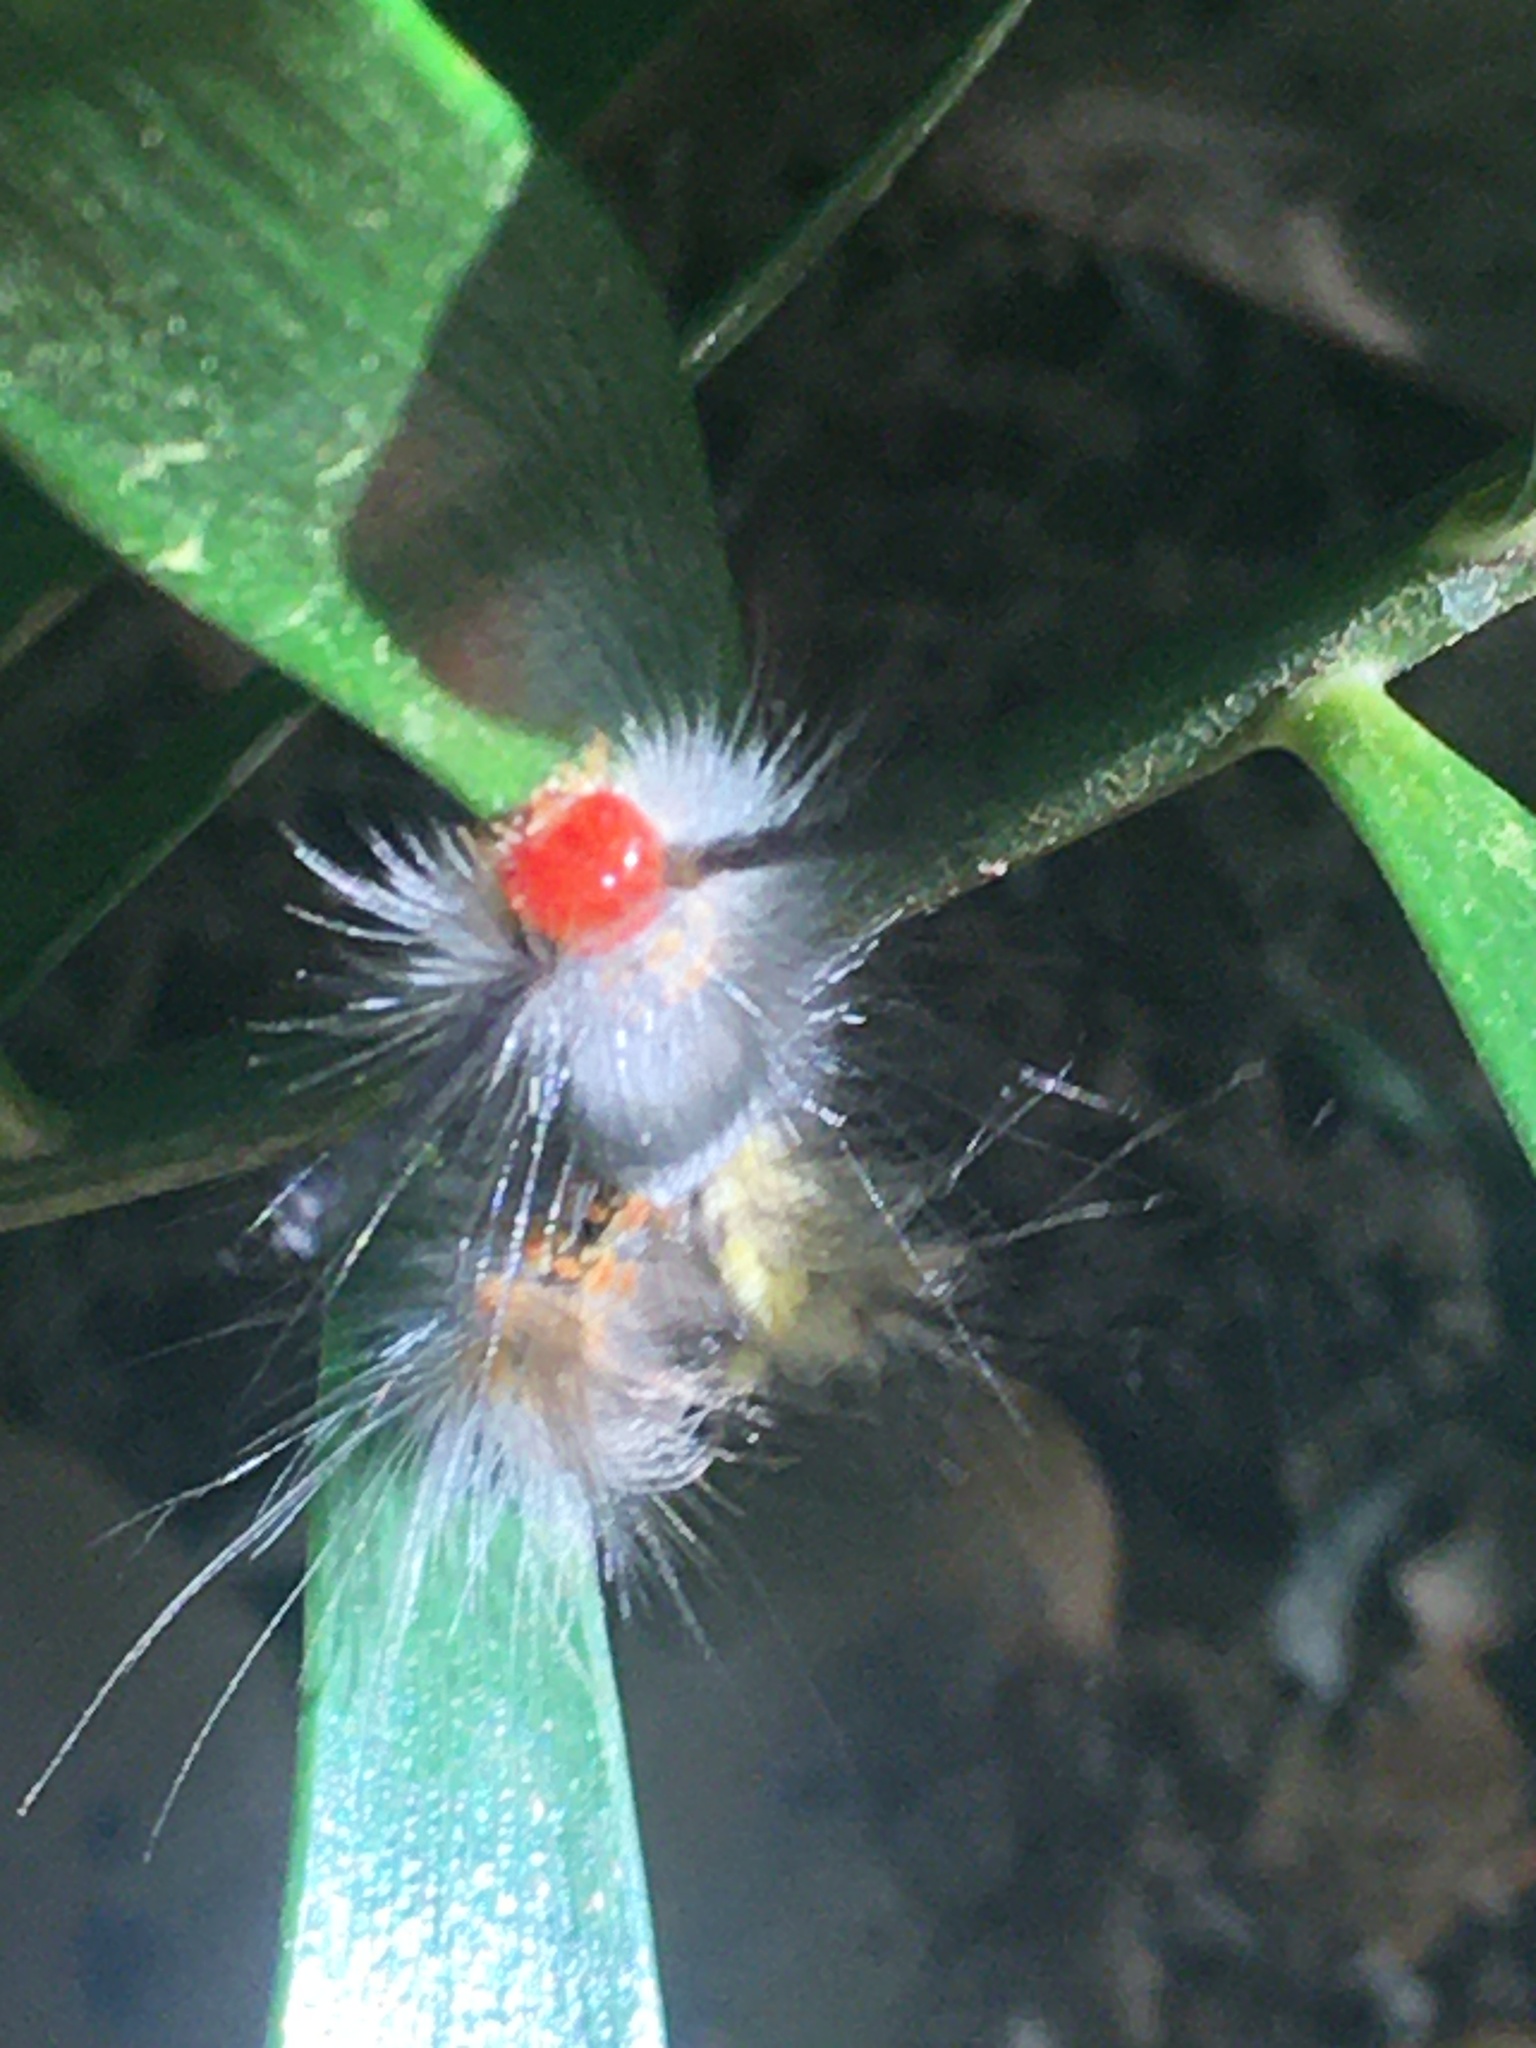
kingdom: Animalia
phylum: Arthropoda
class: Insecta
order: Lepidoptera
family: Erebidae
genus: Orgyia
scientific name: Orgyia detrita
